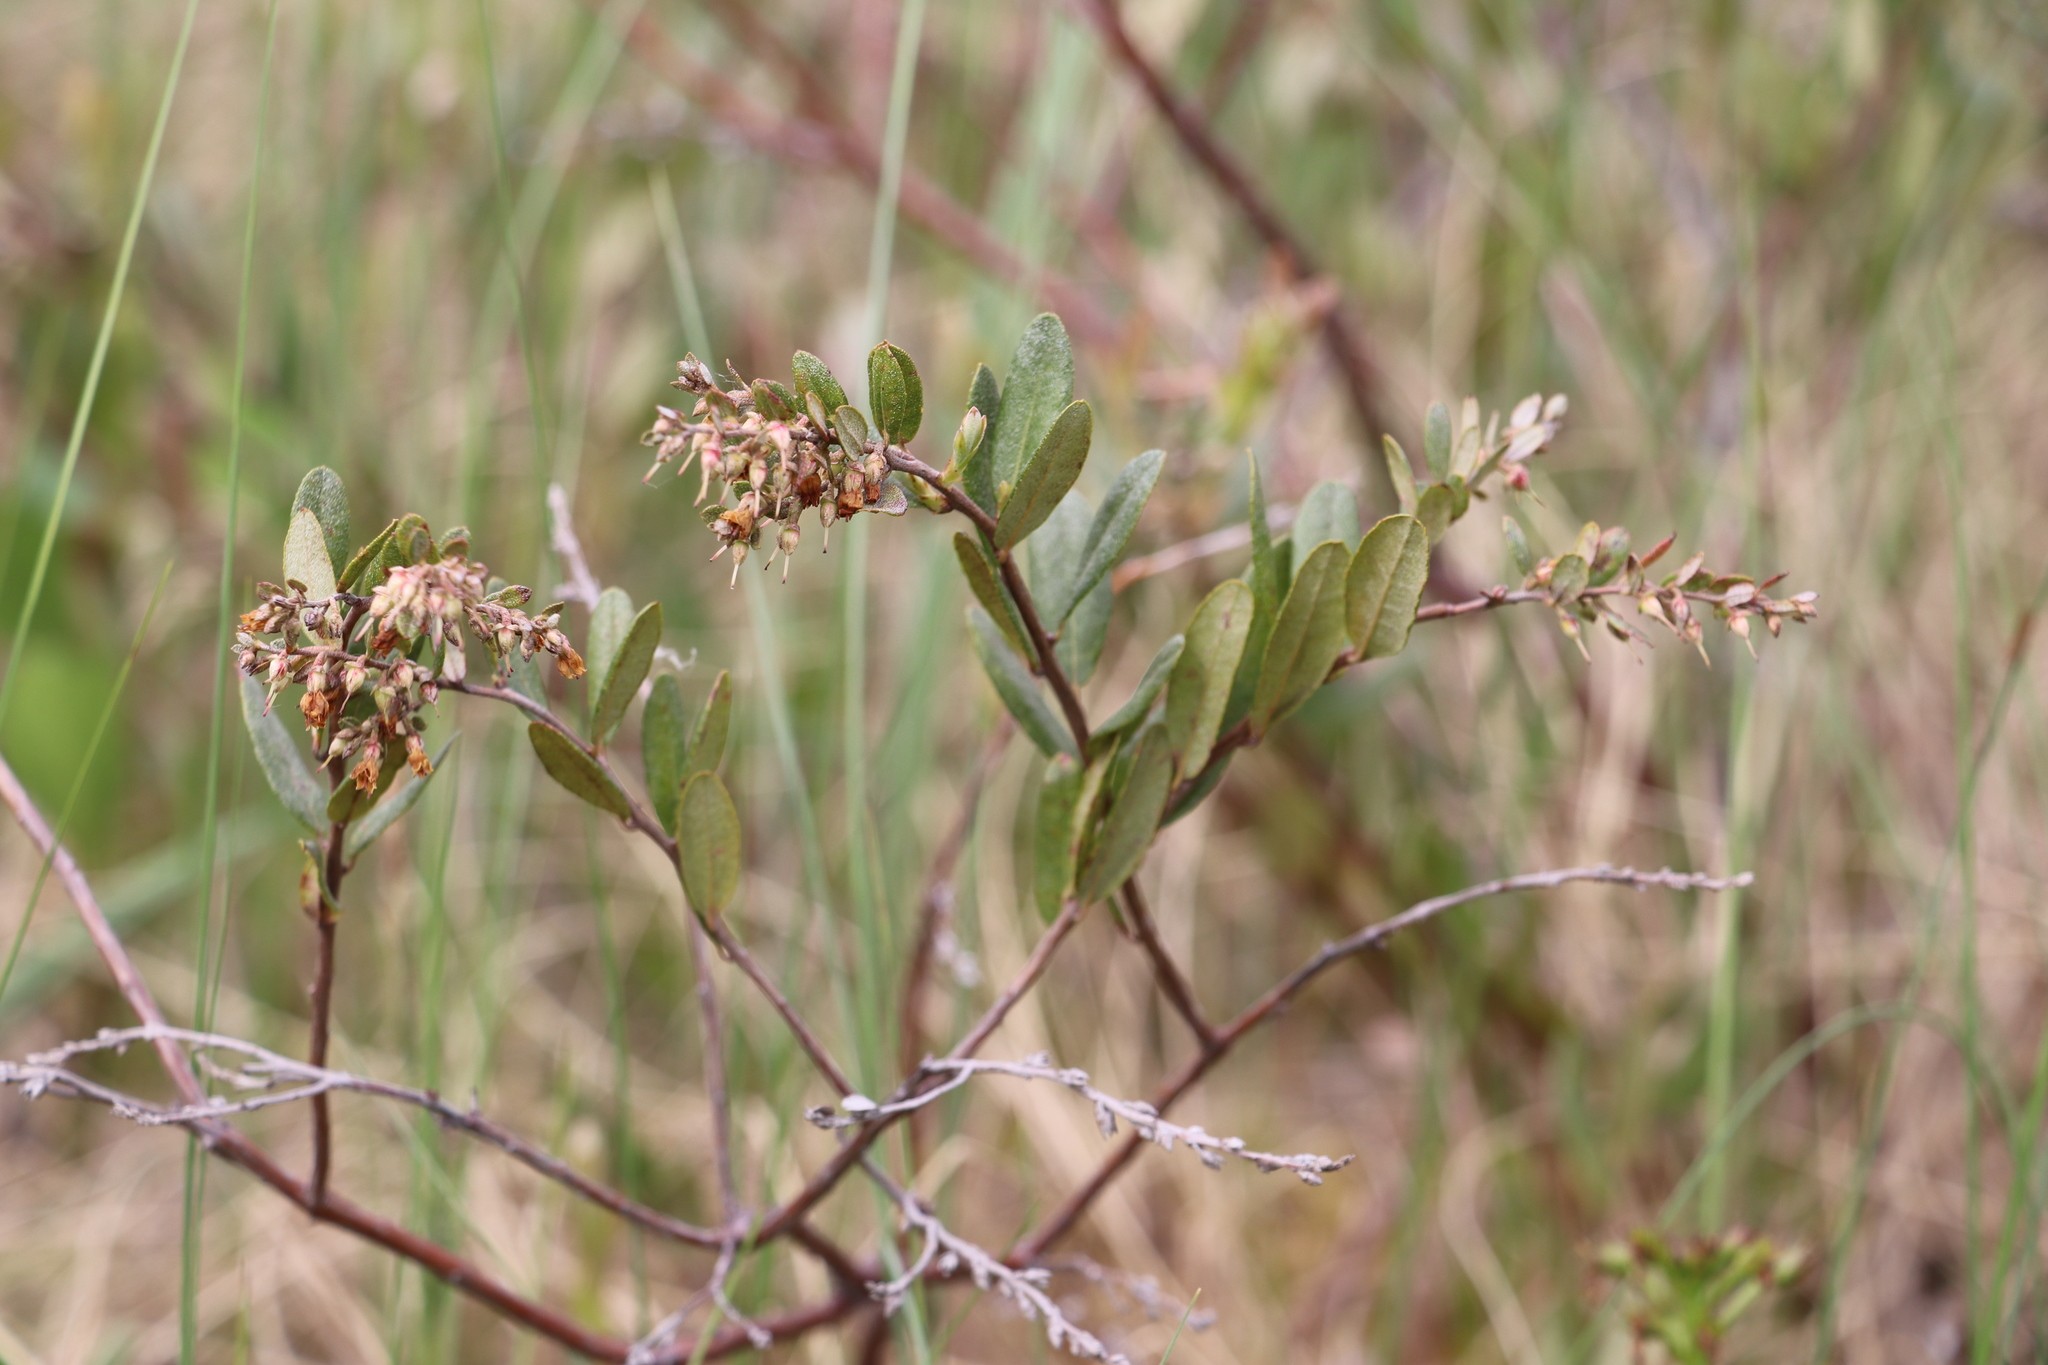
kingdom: Plantae
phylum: Tracheophyta
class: Magnoliopsida
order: Ericales
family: Ericaceae
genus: Chamaedaphne
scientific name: Chamaedaphne calyculata
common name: Leatherleaf
